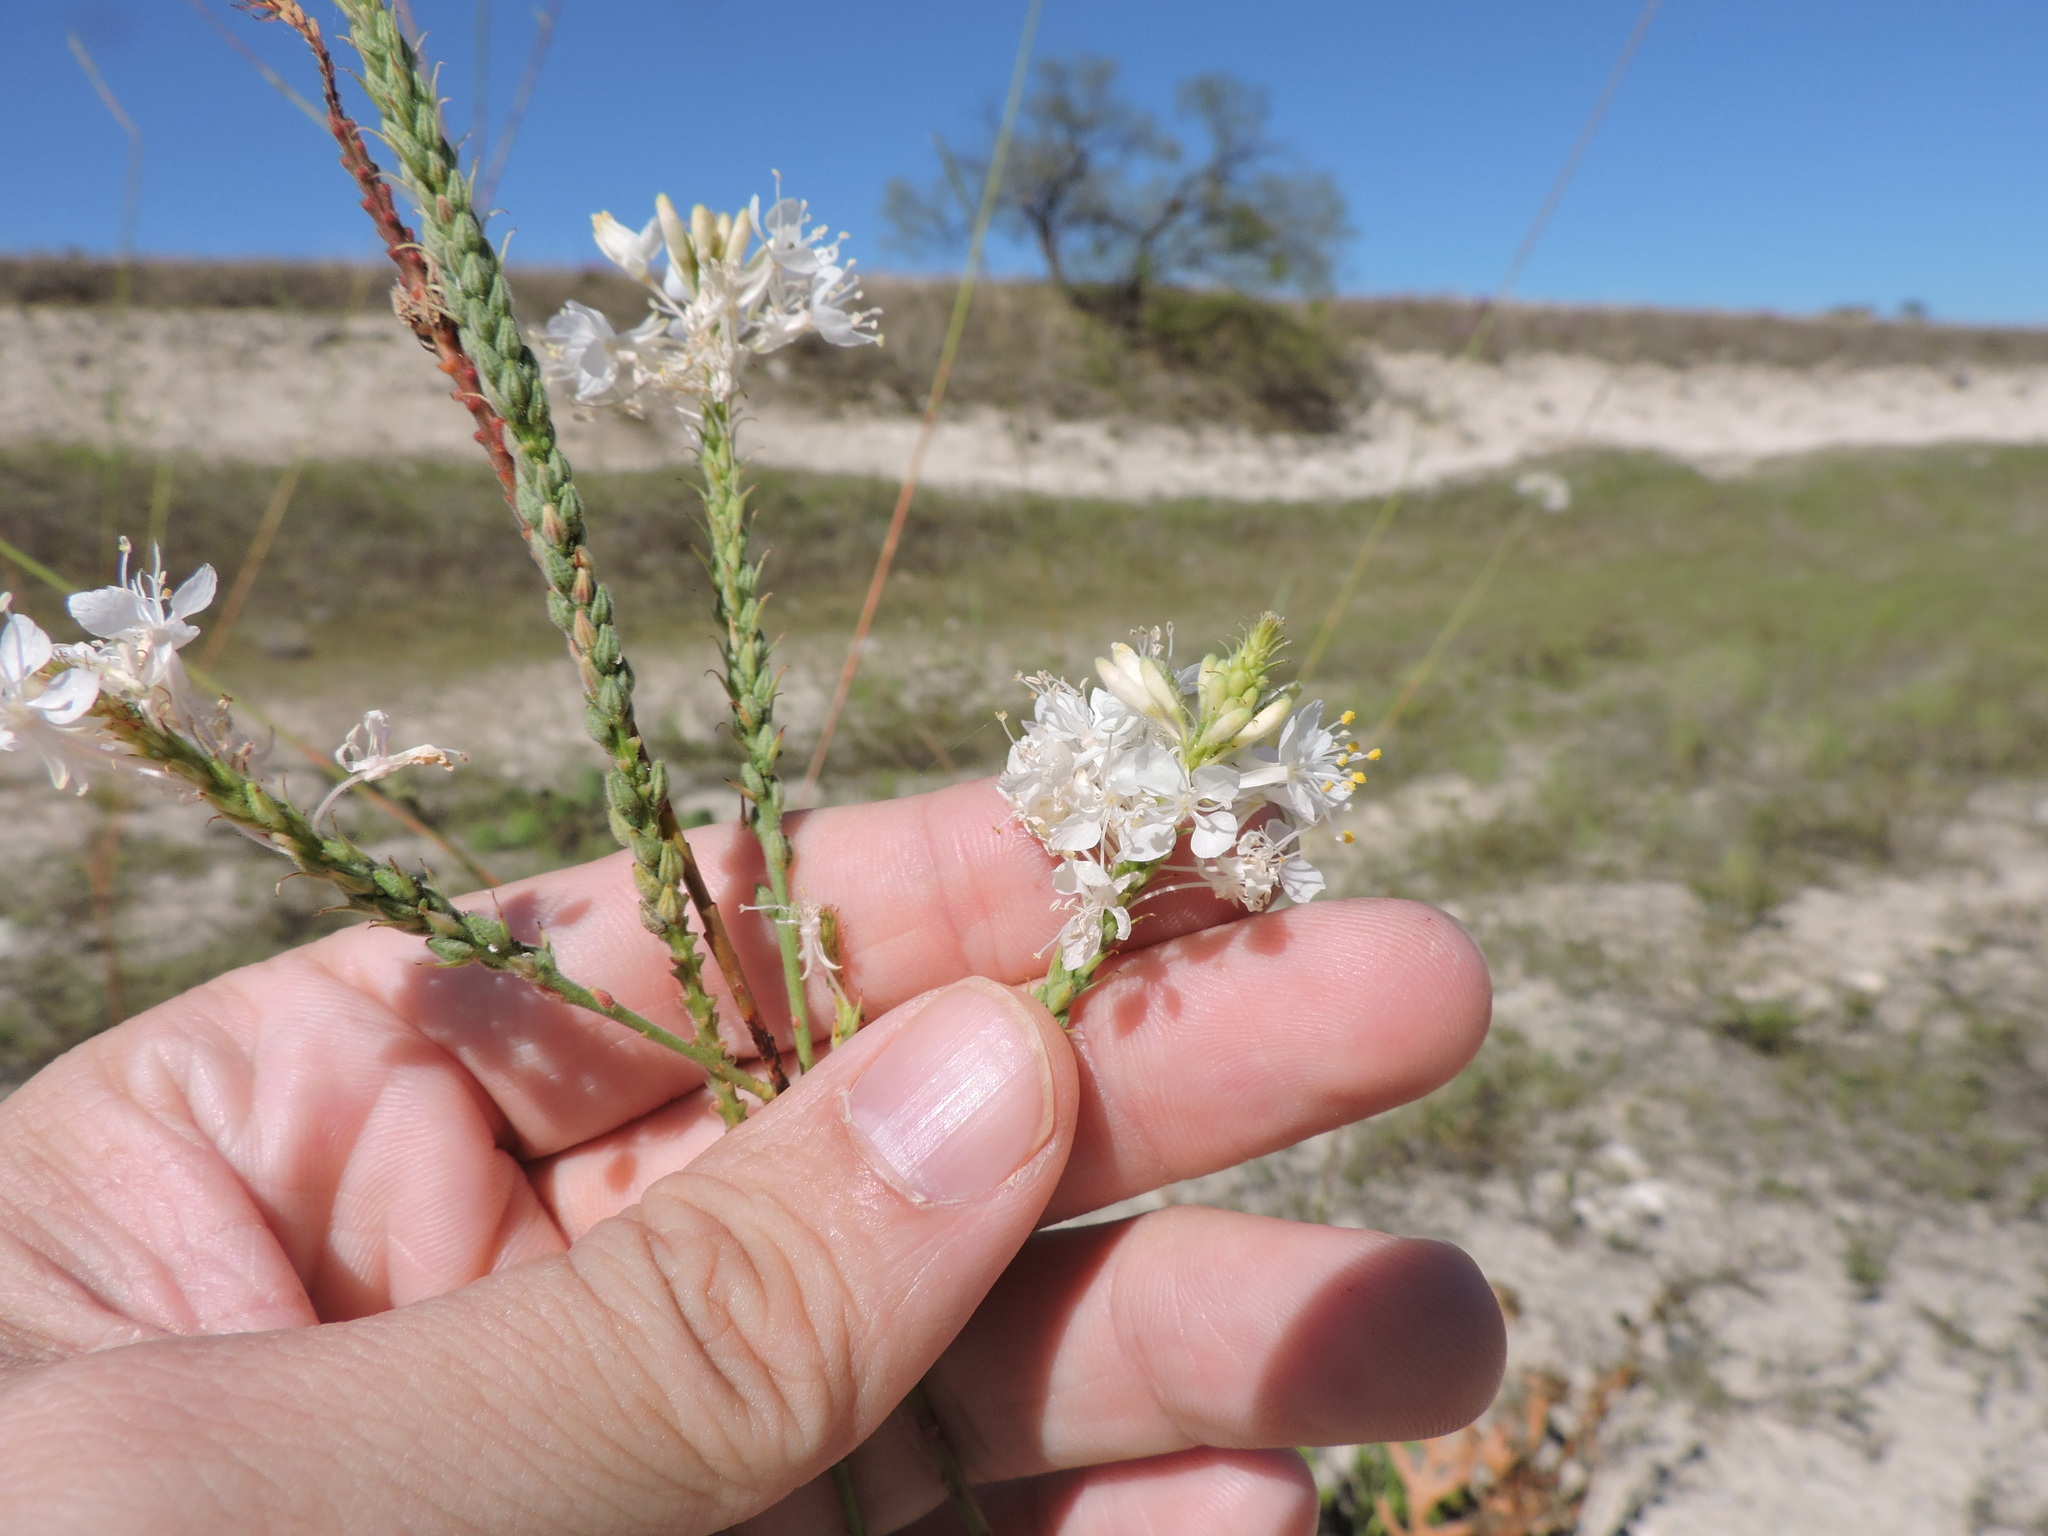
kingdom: Plantae
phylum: Tracheophyta
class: Magnoliopsida
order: Myrtales
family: Onagraceae
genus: Oenothera
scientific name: Oenothera glaucifolia
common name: False gaura
